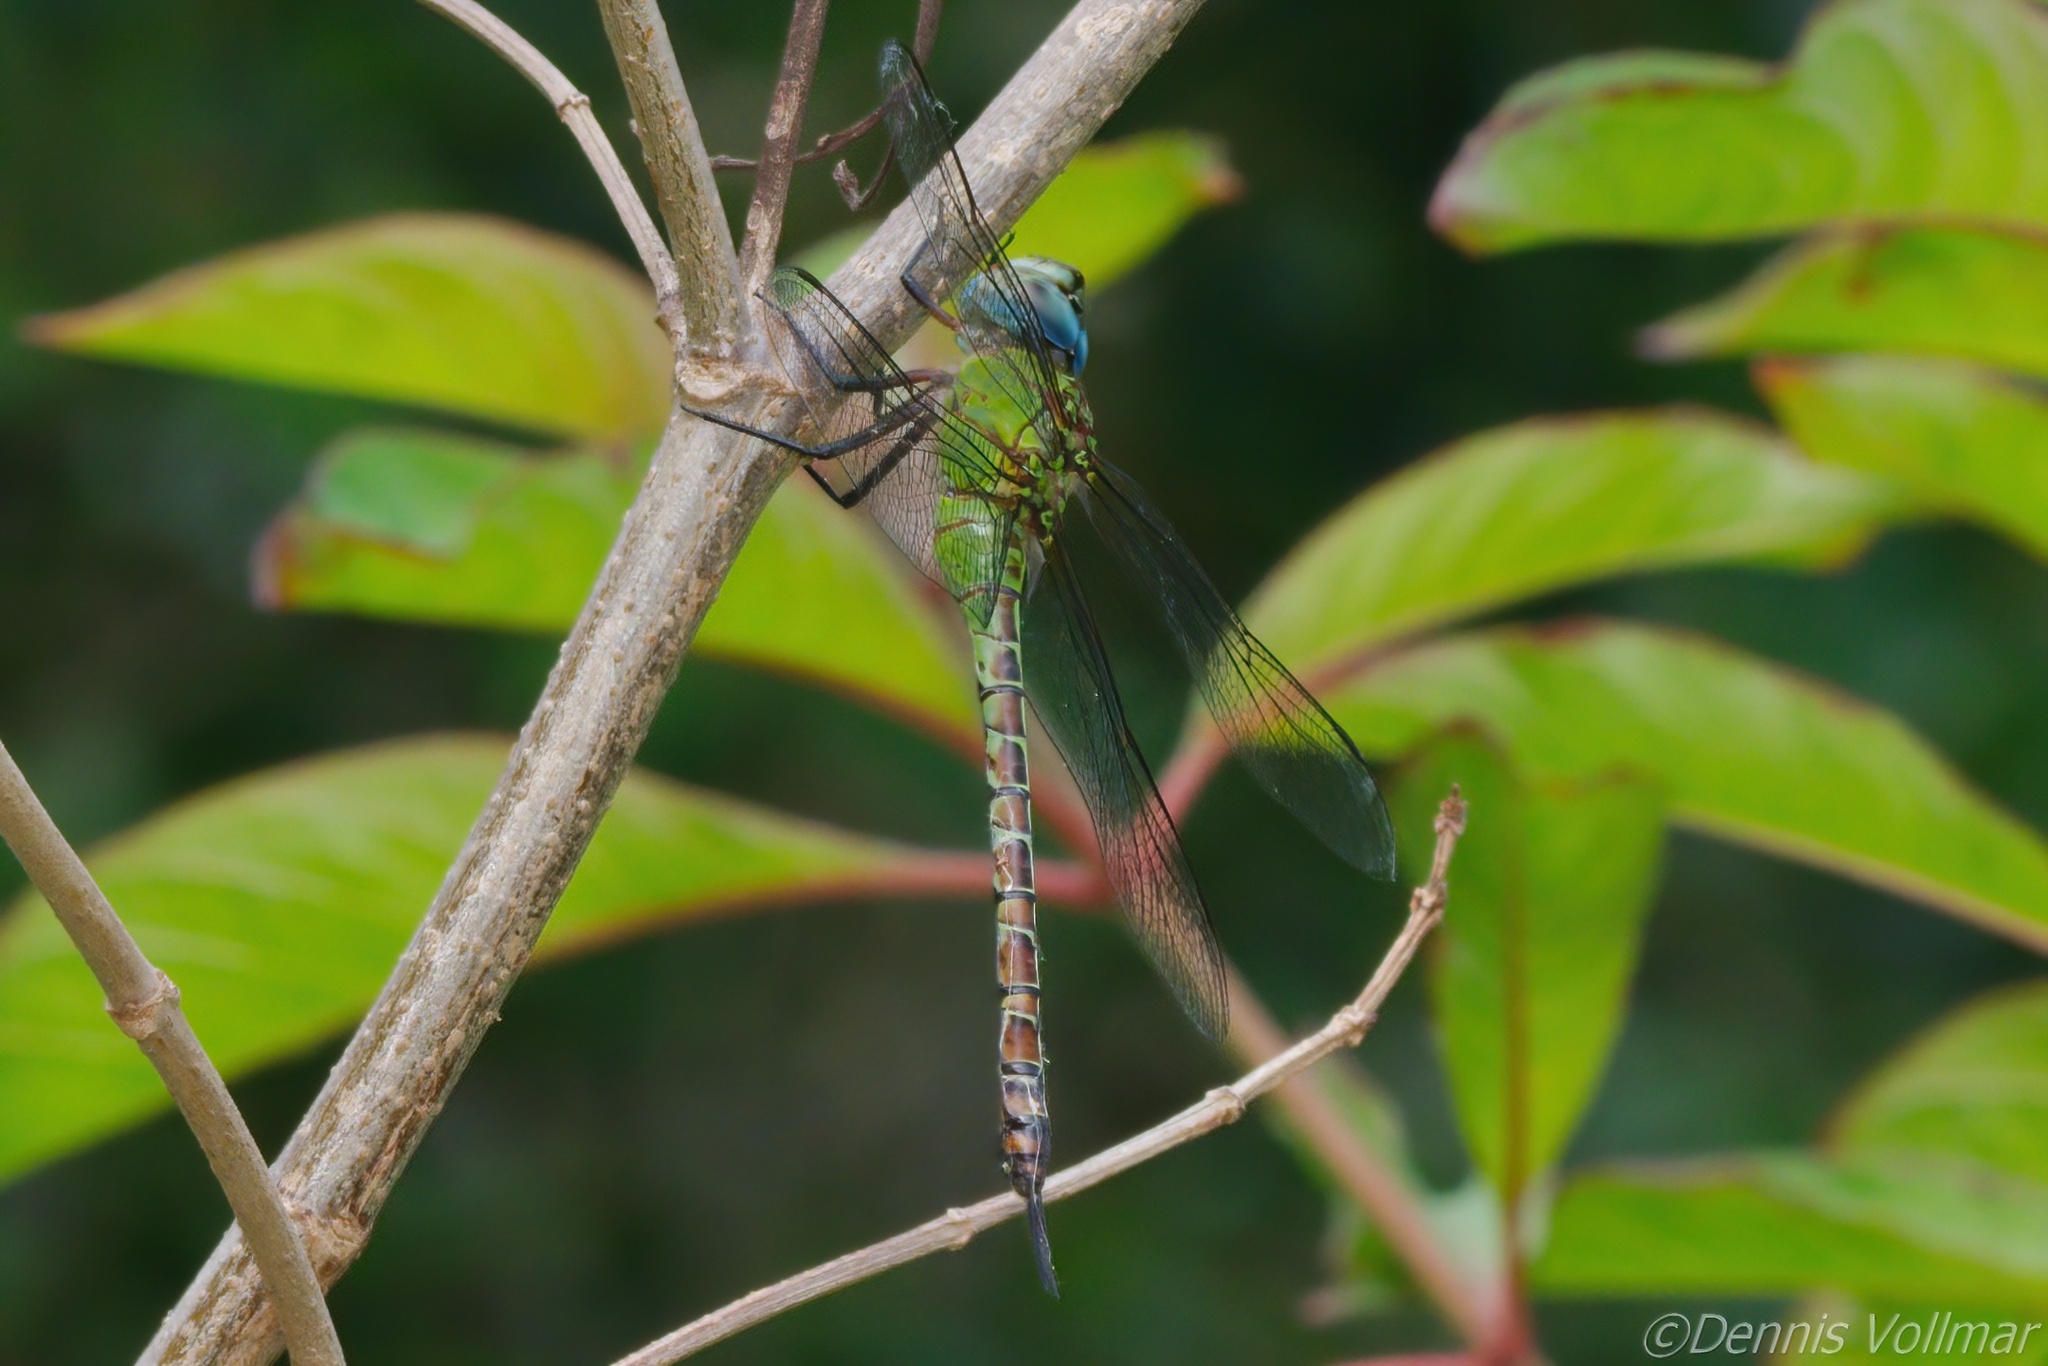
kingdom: Animalia
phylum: Arthropoda
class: Insecta
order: Odonata
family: Aeshnidae
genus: Coryphaeschna
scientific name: Coryphaeschna adnexa
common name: Blue-faced darner
